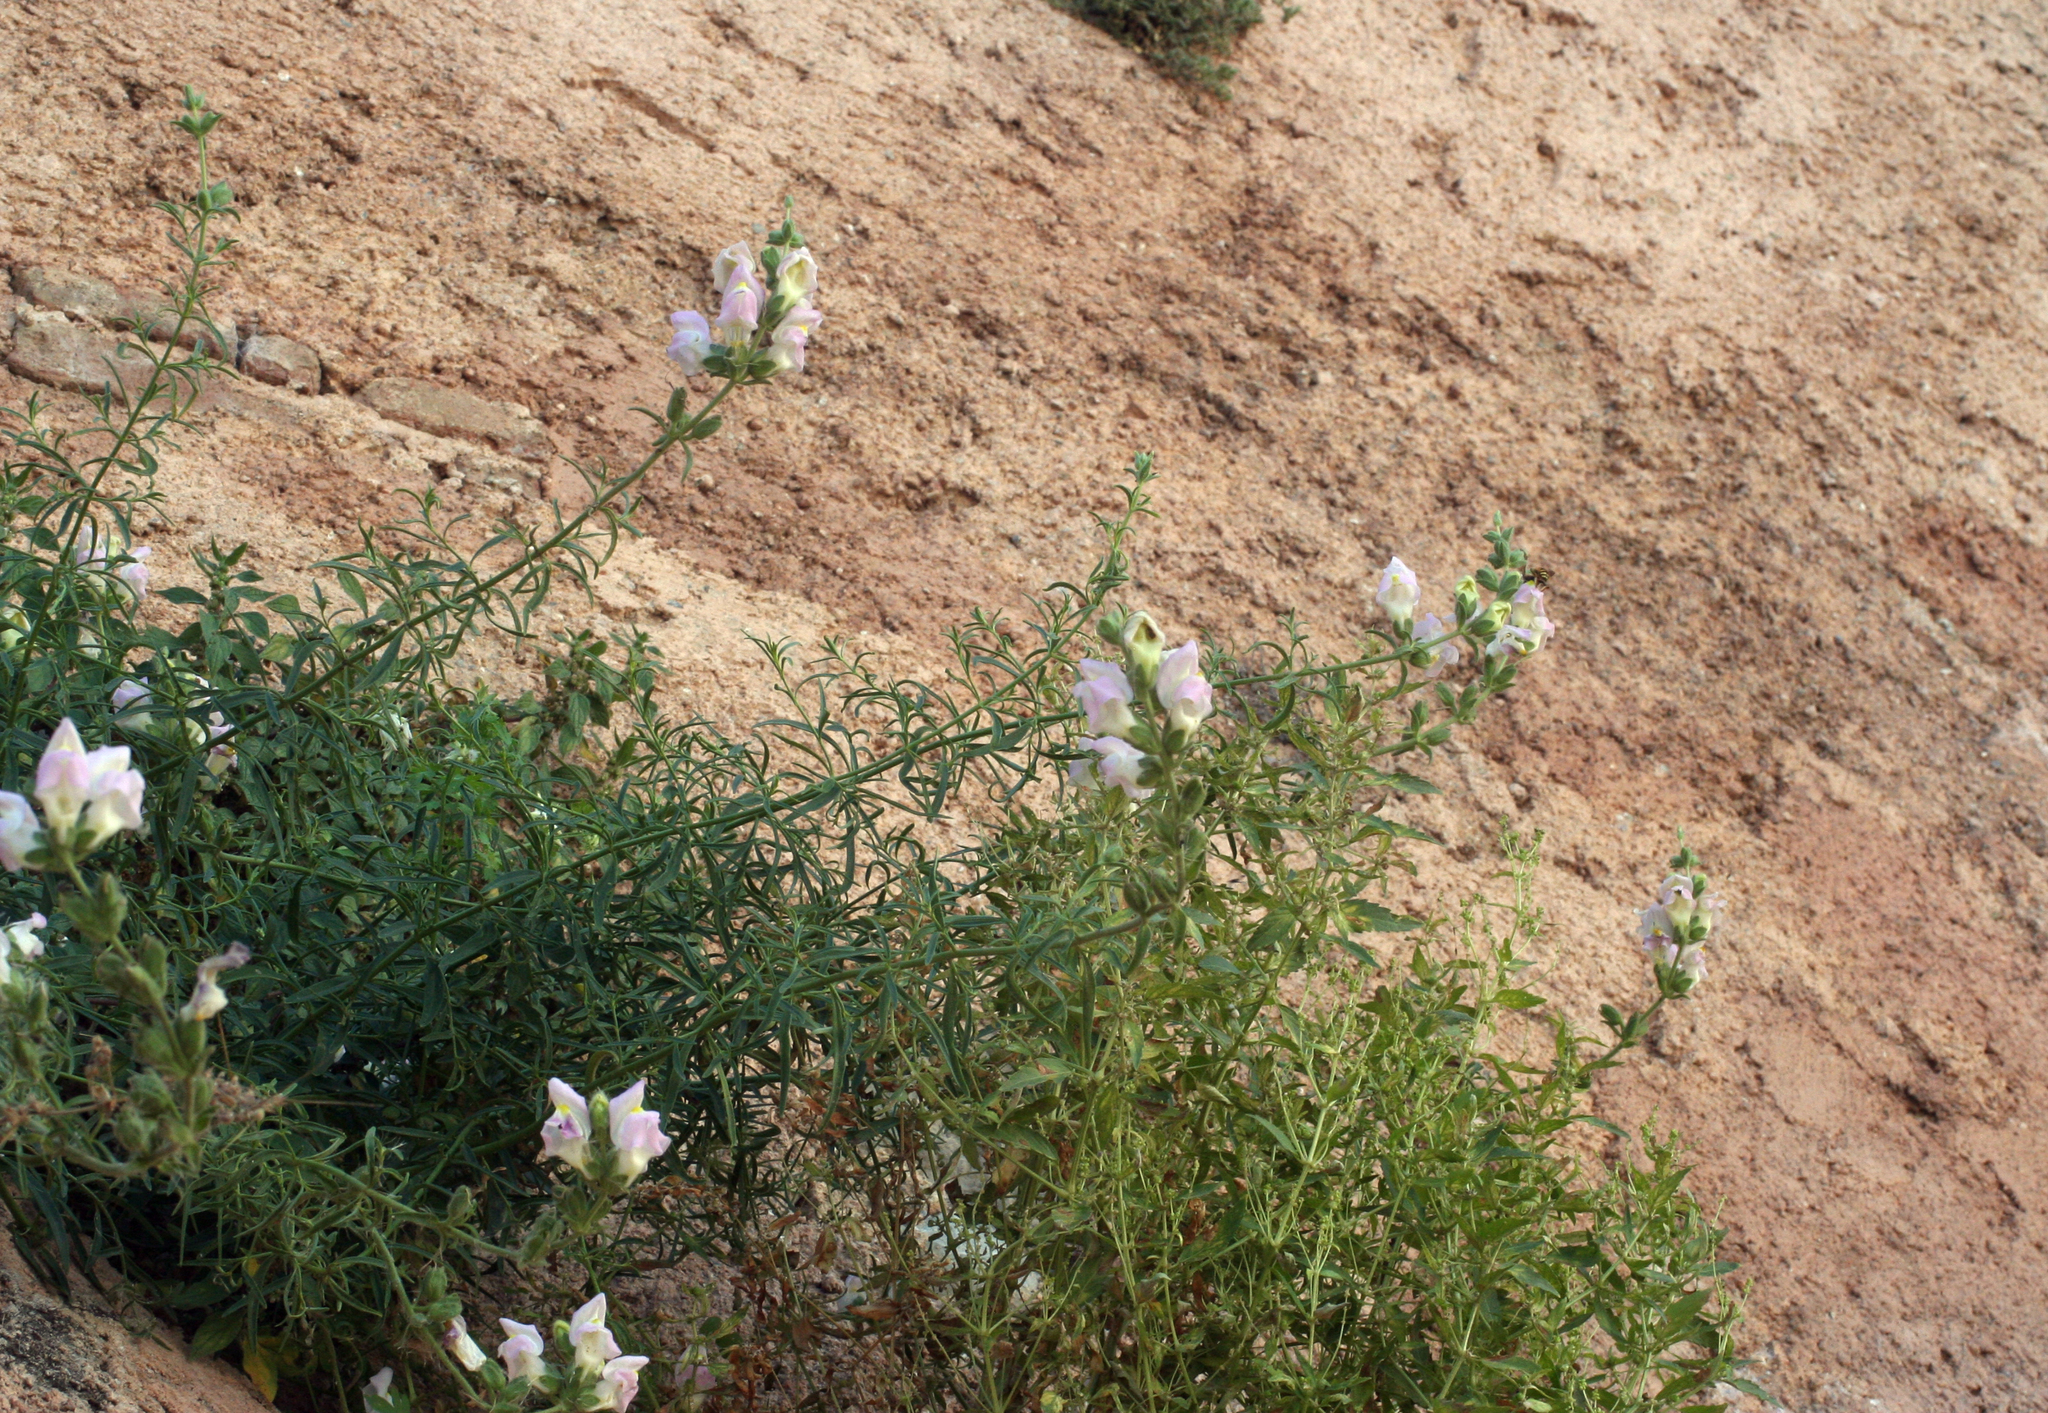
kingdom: Plantae
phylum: Tracheophyta
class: Magnoliopsida
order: Lamiales
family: Plantaginaceae
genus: Antirrhinum
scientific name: Antirrhinum tortuosum
